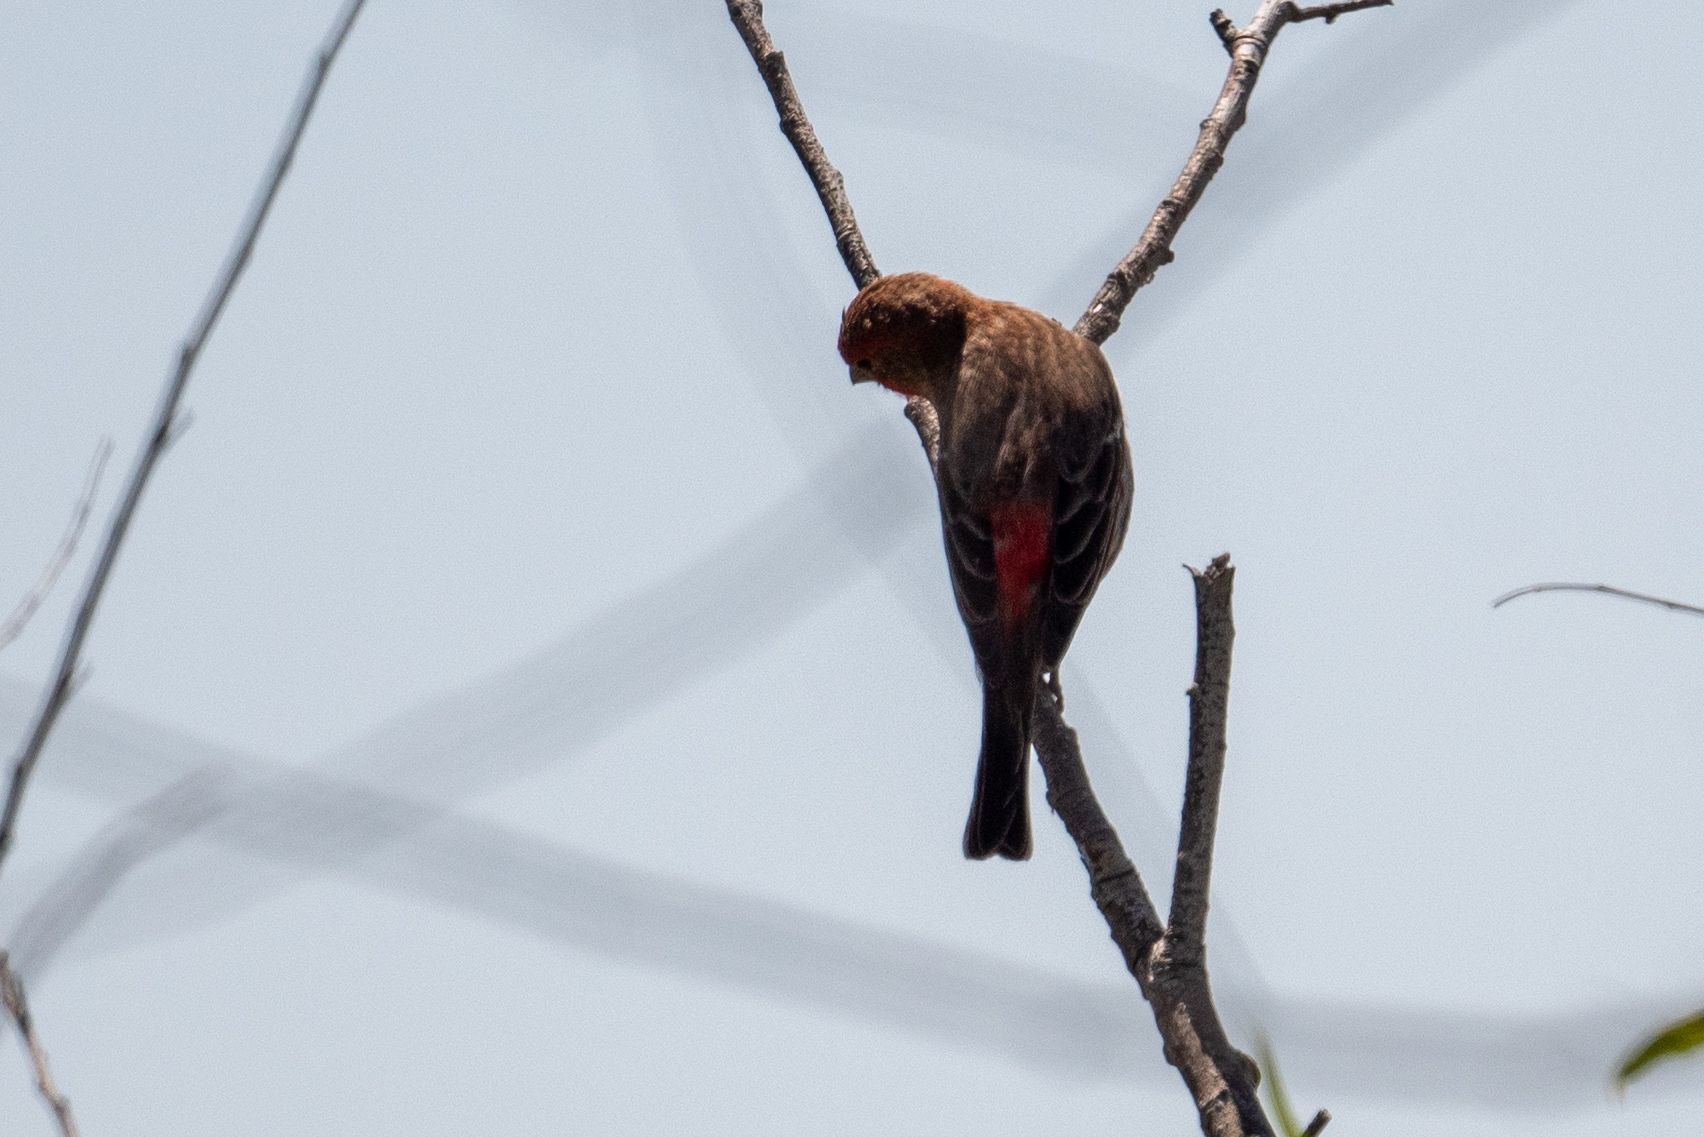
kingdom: Animalia
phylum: Chordata
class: Aves
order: Passeriformes
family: Fringillidae
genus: Haemorhous
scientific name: Haemorhous mexicanus
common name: House finch
